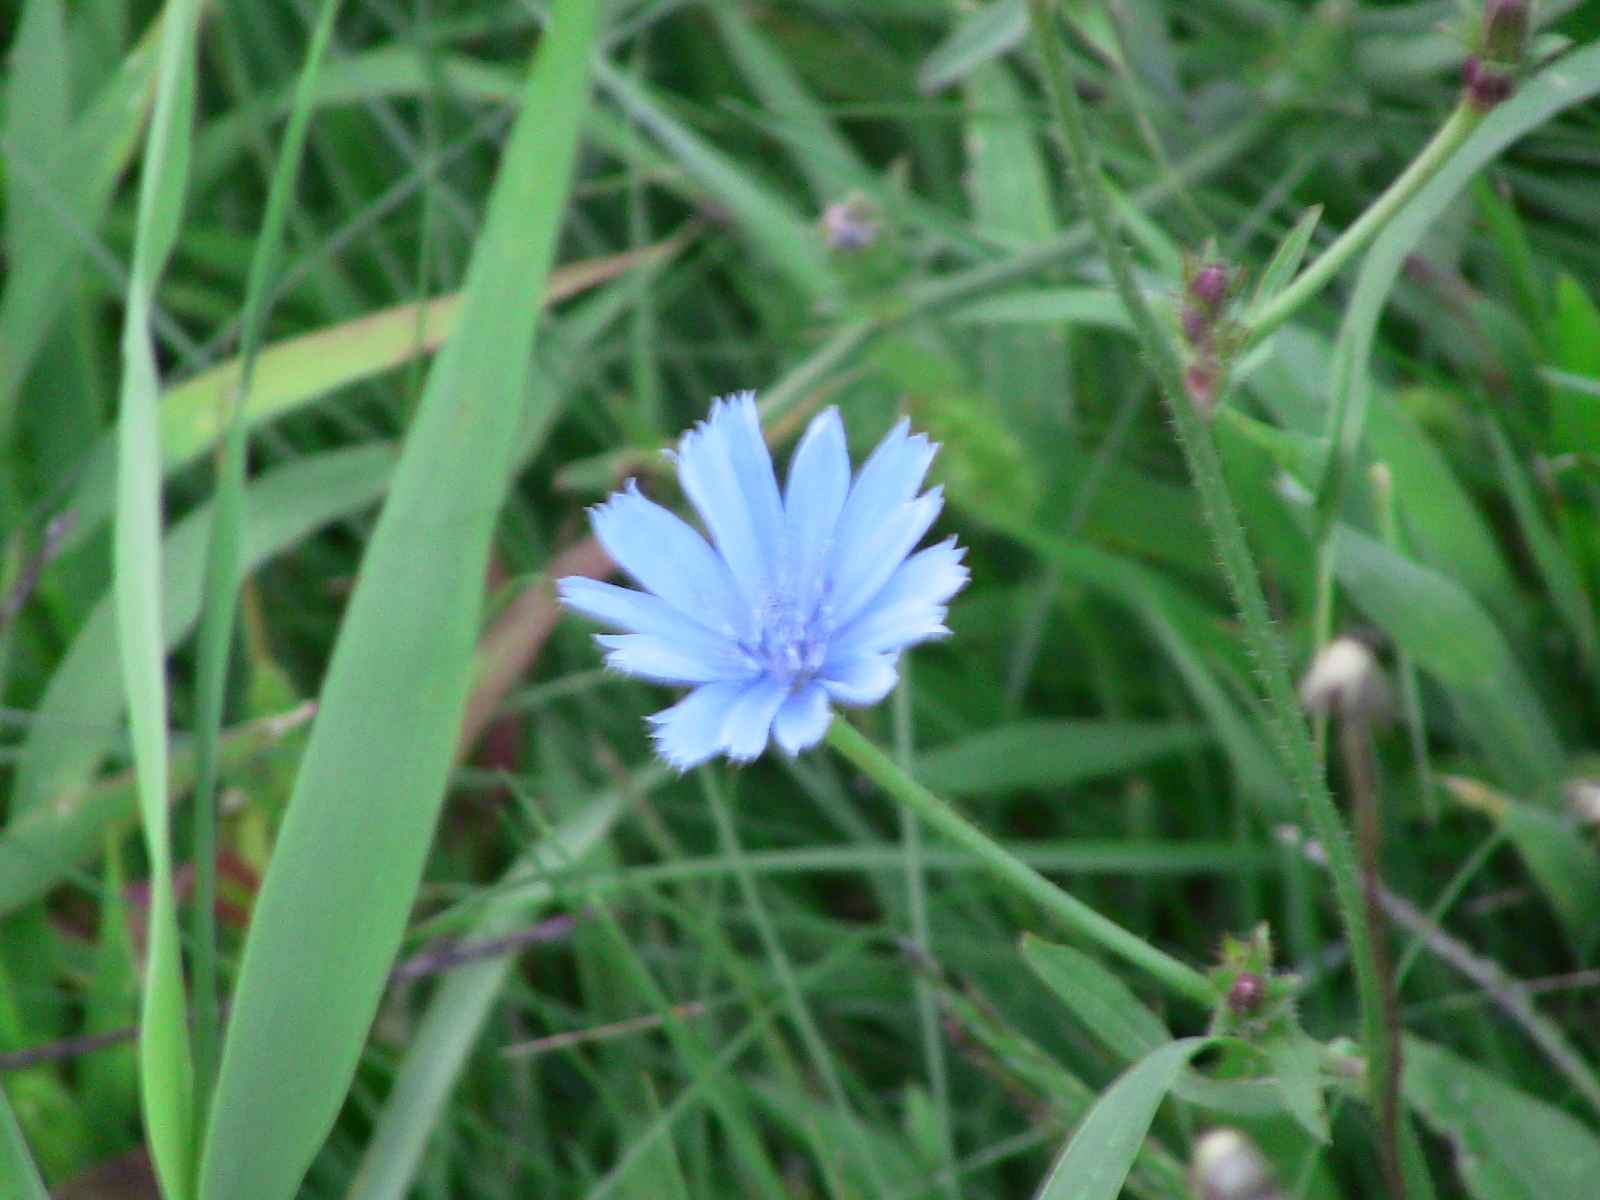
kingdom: Plantae
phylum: Tracheophyta
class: Magnoliopsida
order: Asterales
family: Asteraceae
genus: Cichorium
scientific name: Cichorium intybus
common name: Chicory
